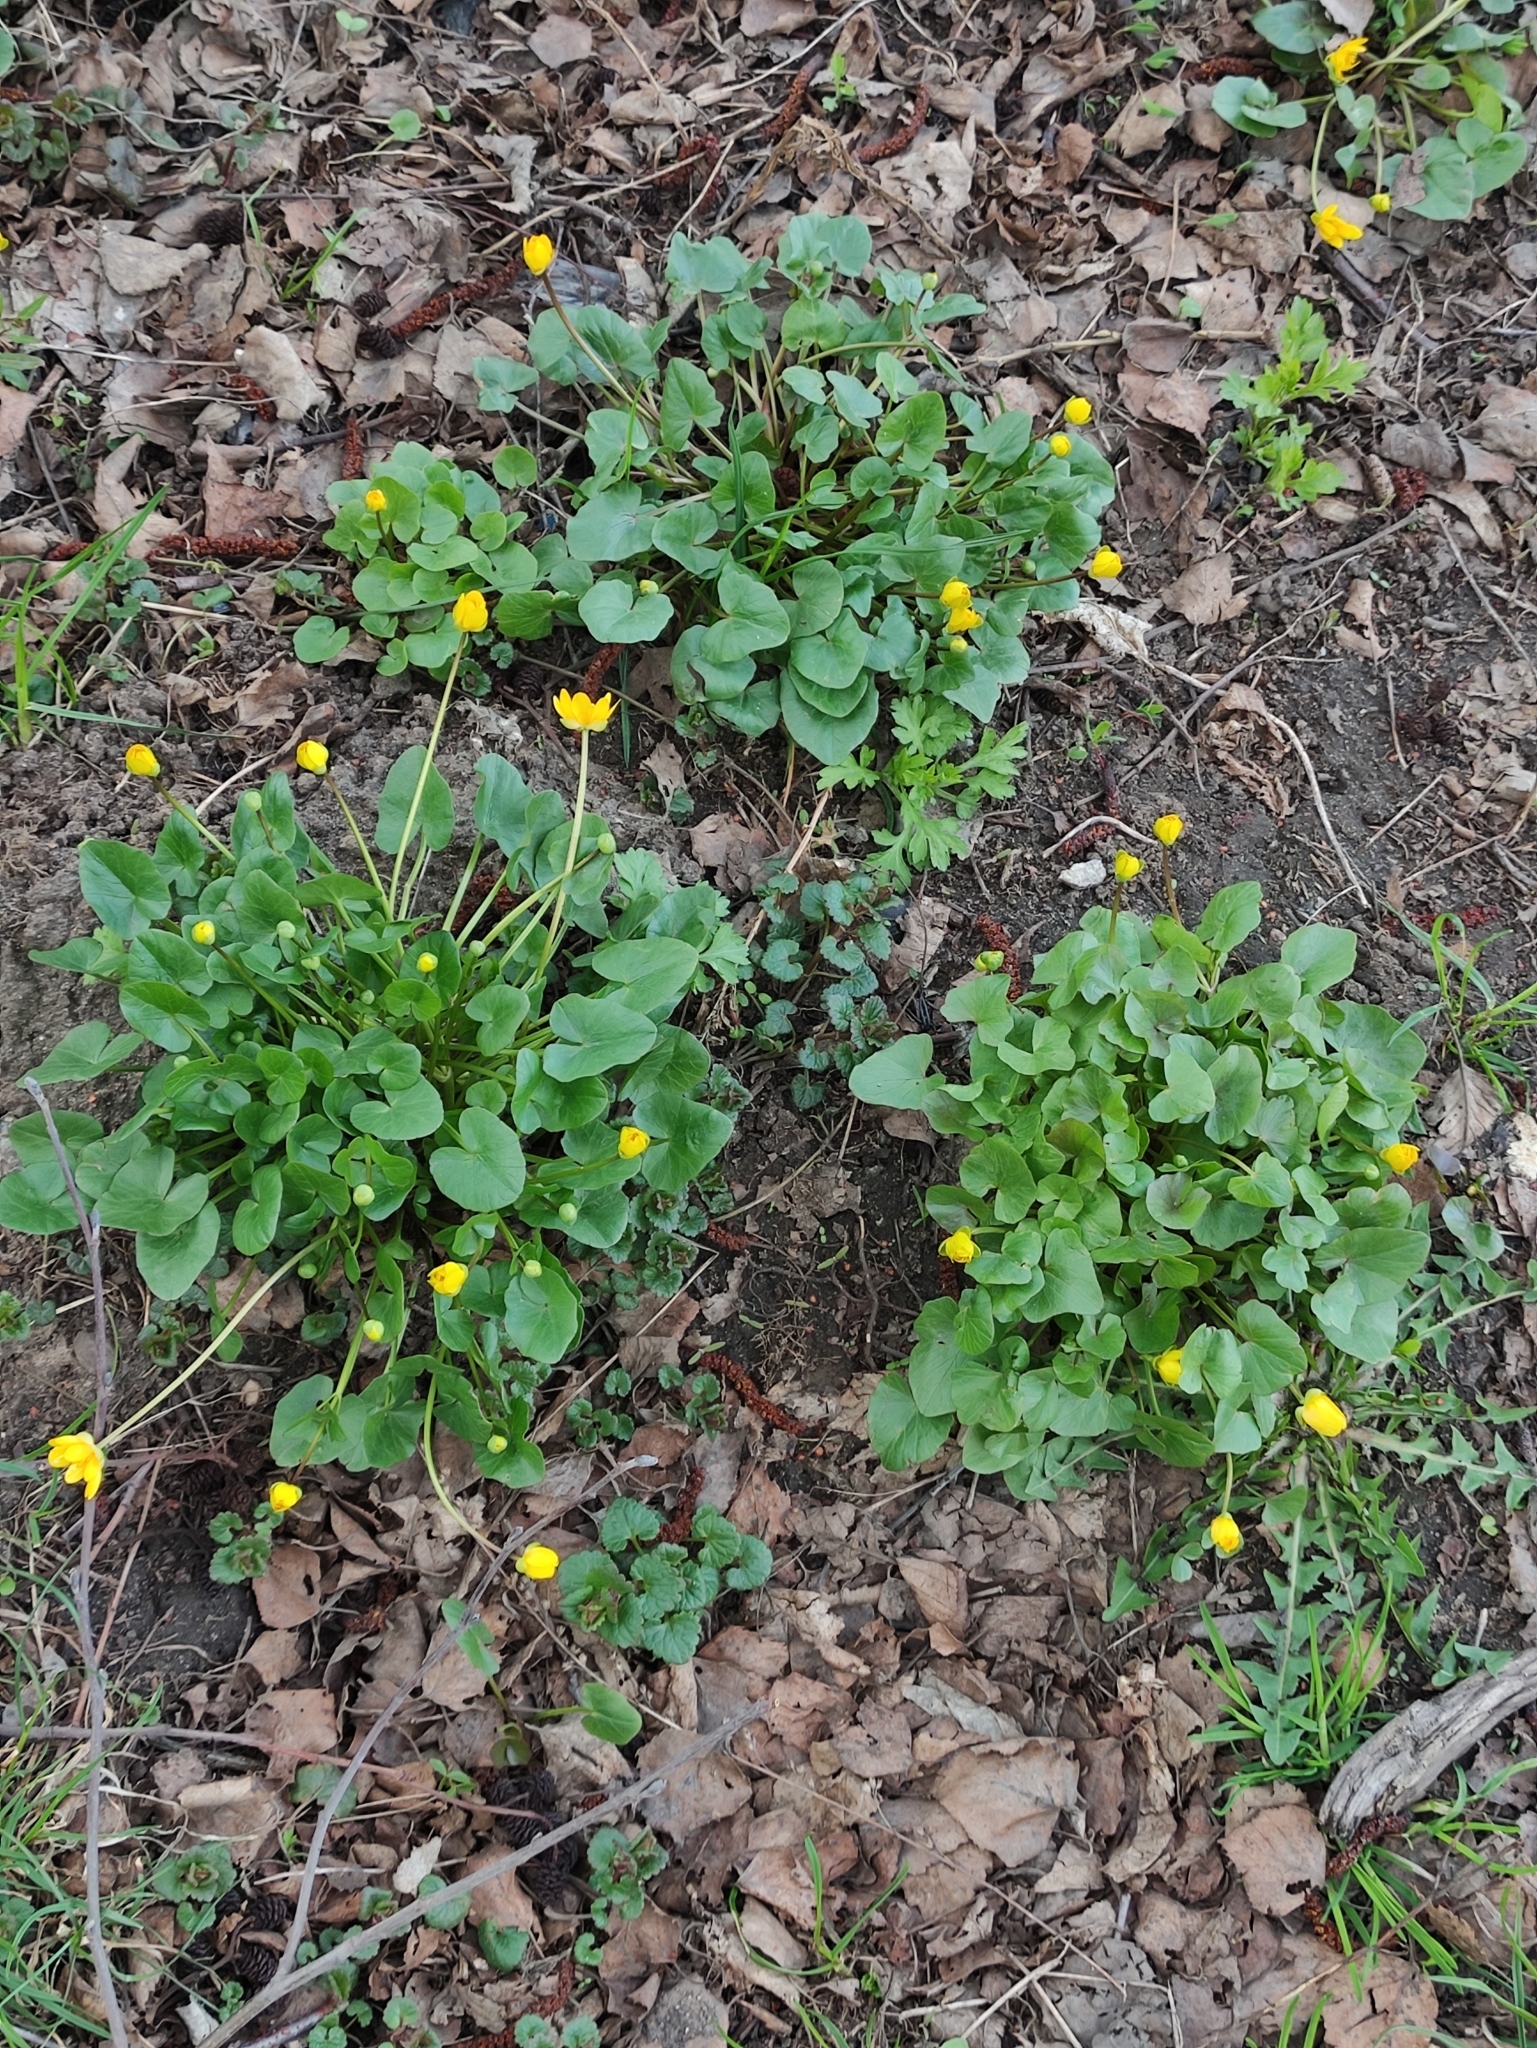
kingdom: Plantae
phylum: Tracheophyta
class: Magnoliopsida
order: Ranunculales
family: Ranunculaceae
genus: Ficaria
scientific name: Ficaria verna
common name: Lesser celandine
